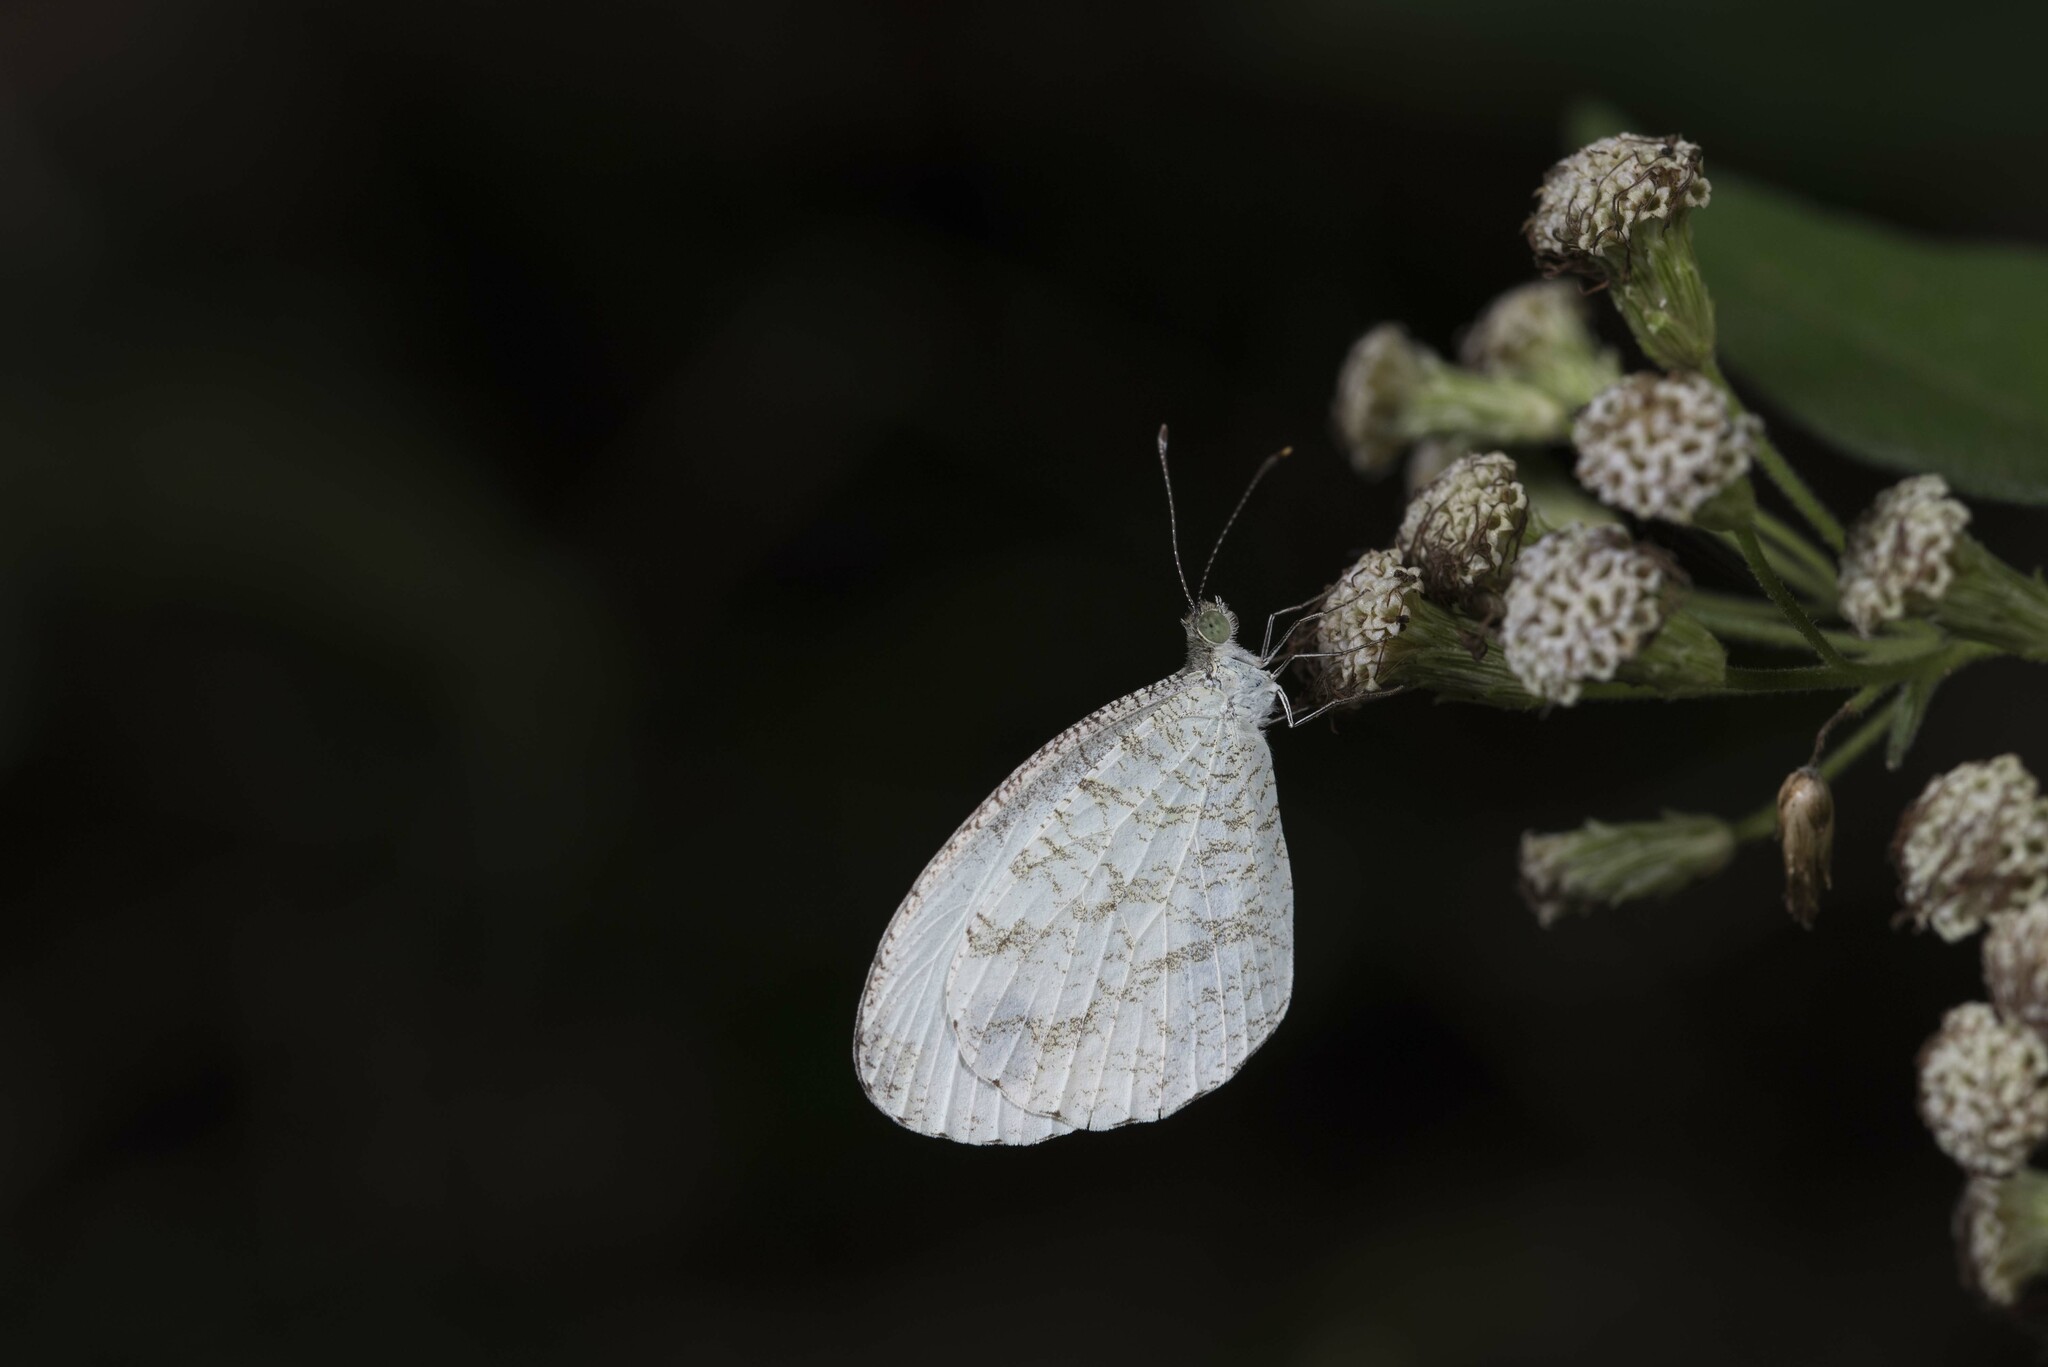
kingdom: Animalia
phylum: Arthropoda
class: Insecta
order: Lepidoptera
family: Pieridae
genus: Leptosia
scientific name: Leptosia nina
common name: Psyche
